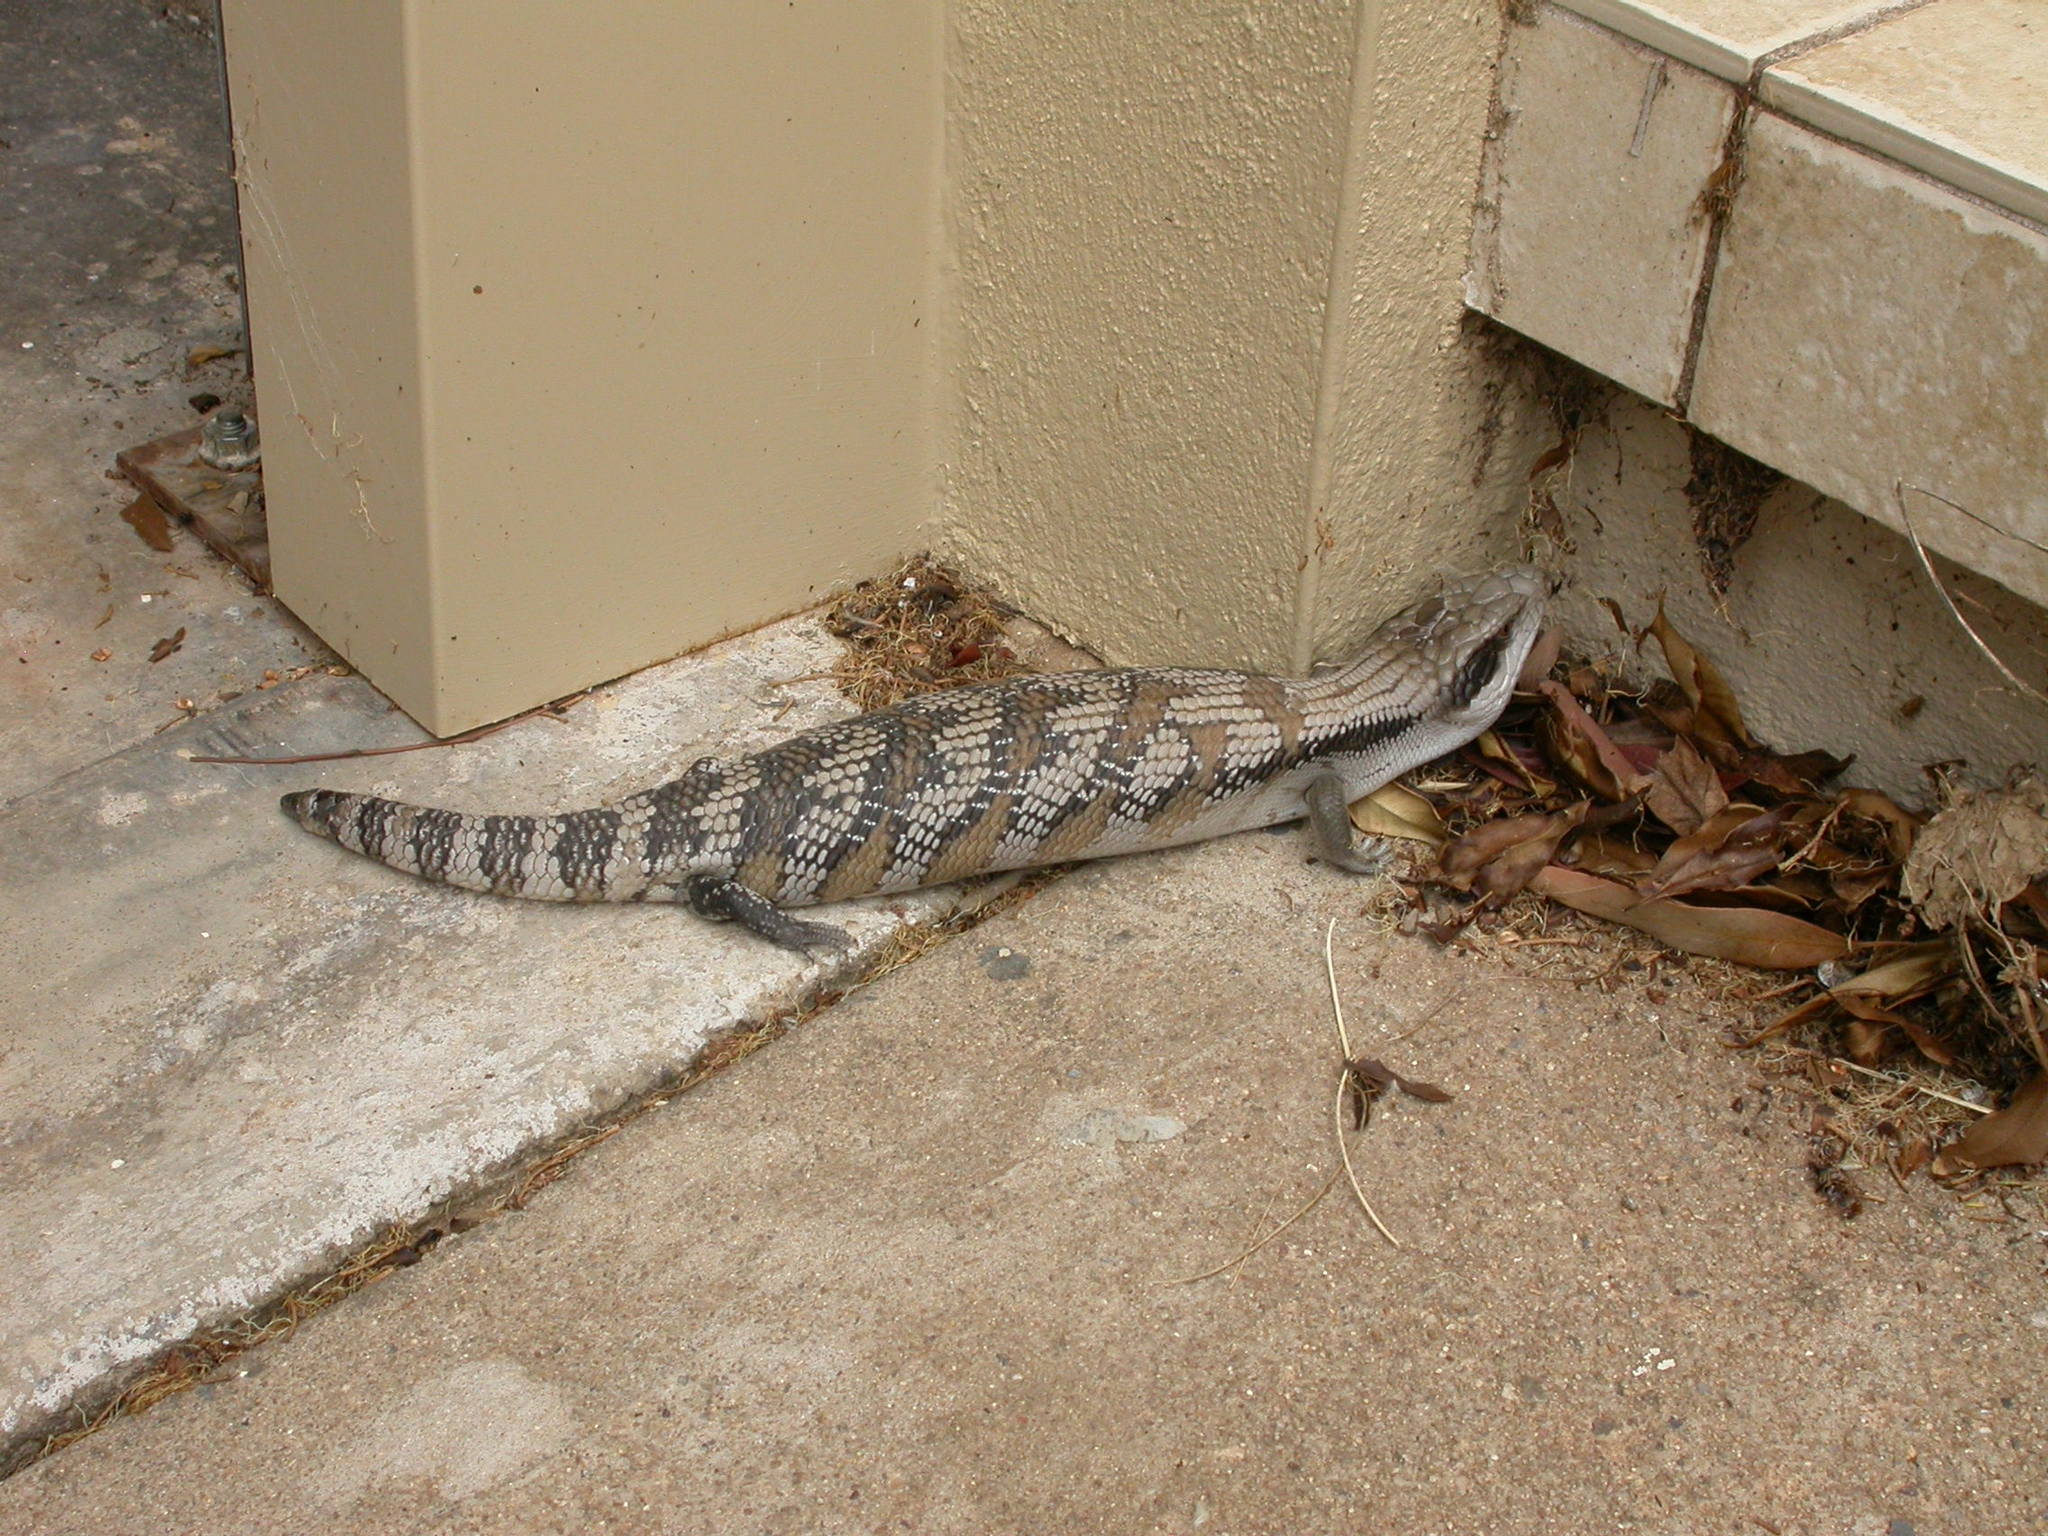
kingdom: Animalia
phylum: Chordata
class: Squamata
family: Scincidae
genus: Tiliqua
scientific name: Tiliqua scincoides
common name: Common bluetongue
